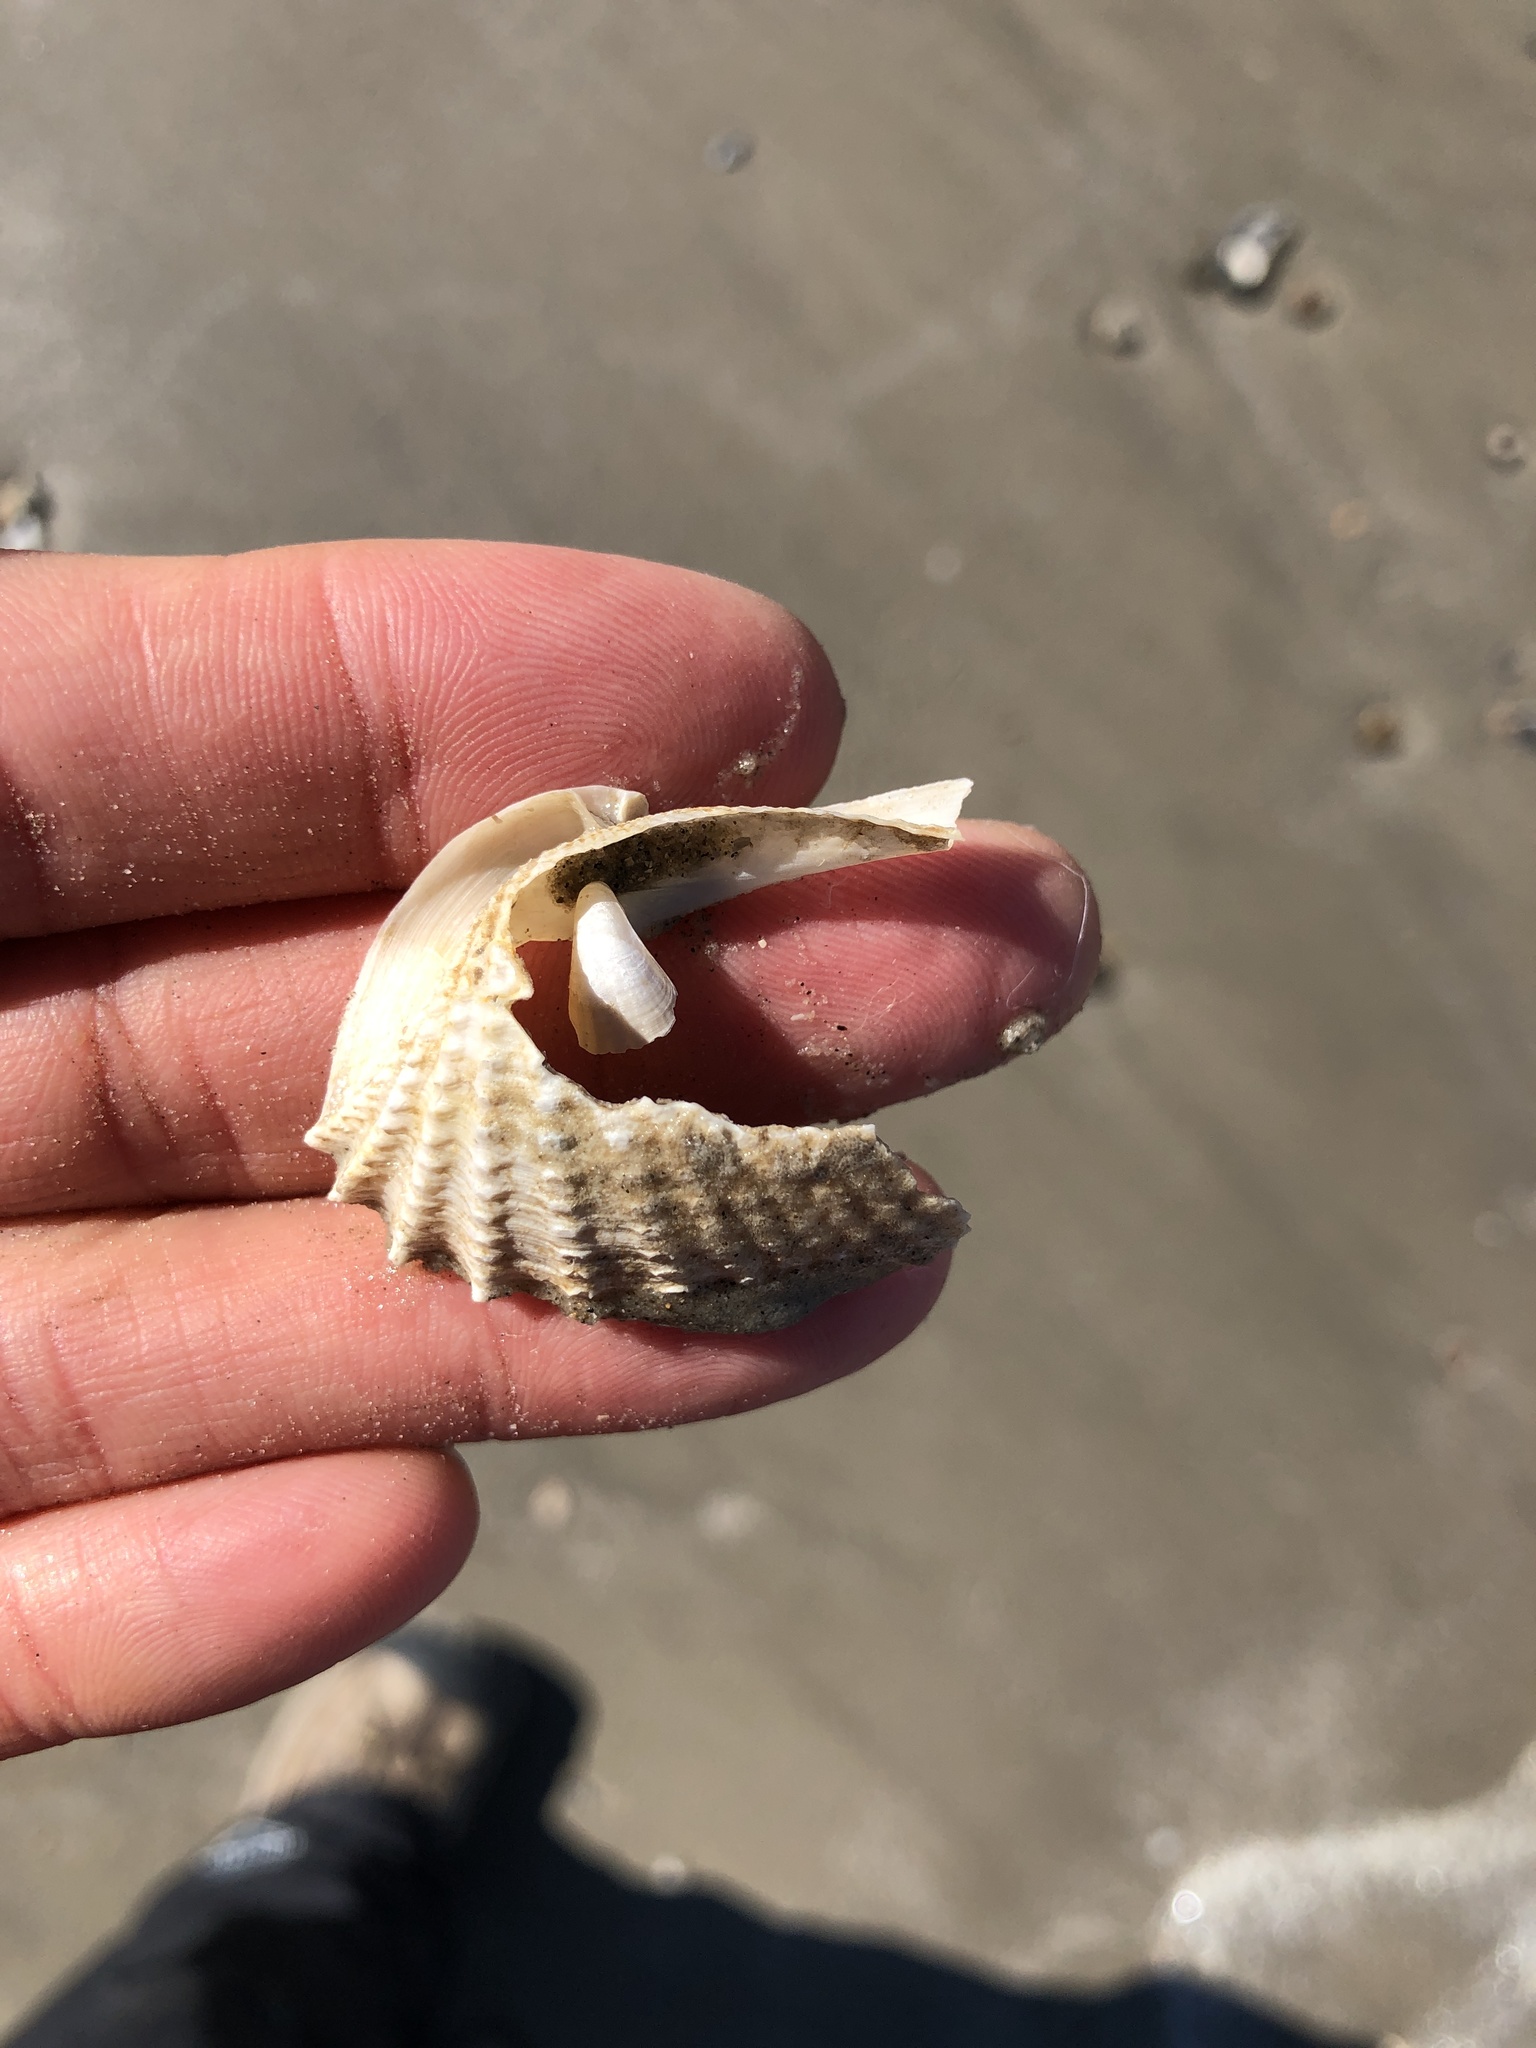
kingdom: Animalia
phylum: Mollusca
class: Bivalvia
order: Myida
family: Pholadidae
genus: Cyrtopleura
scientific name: Cyrtopleura costata
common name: Angel wing
